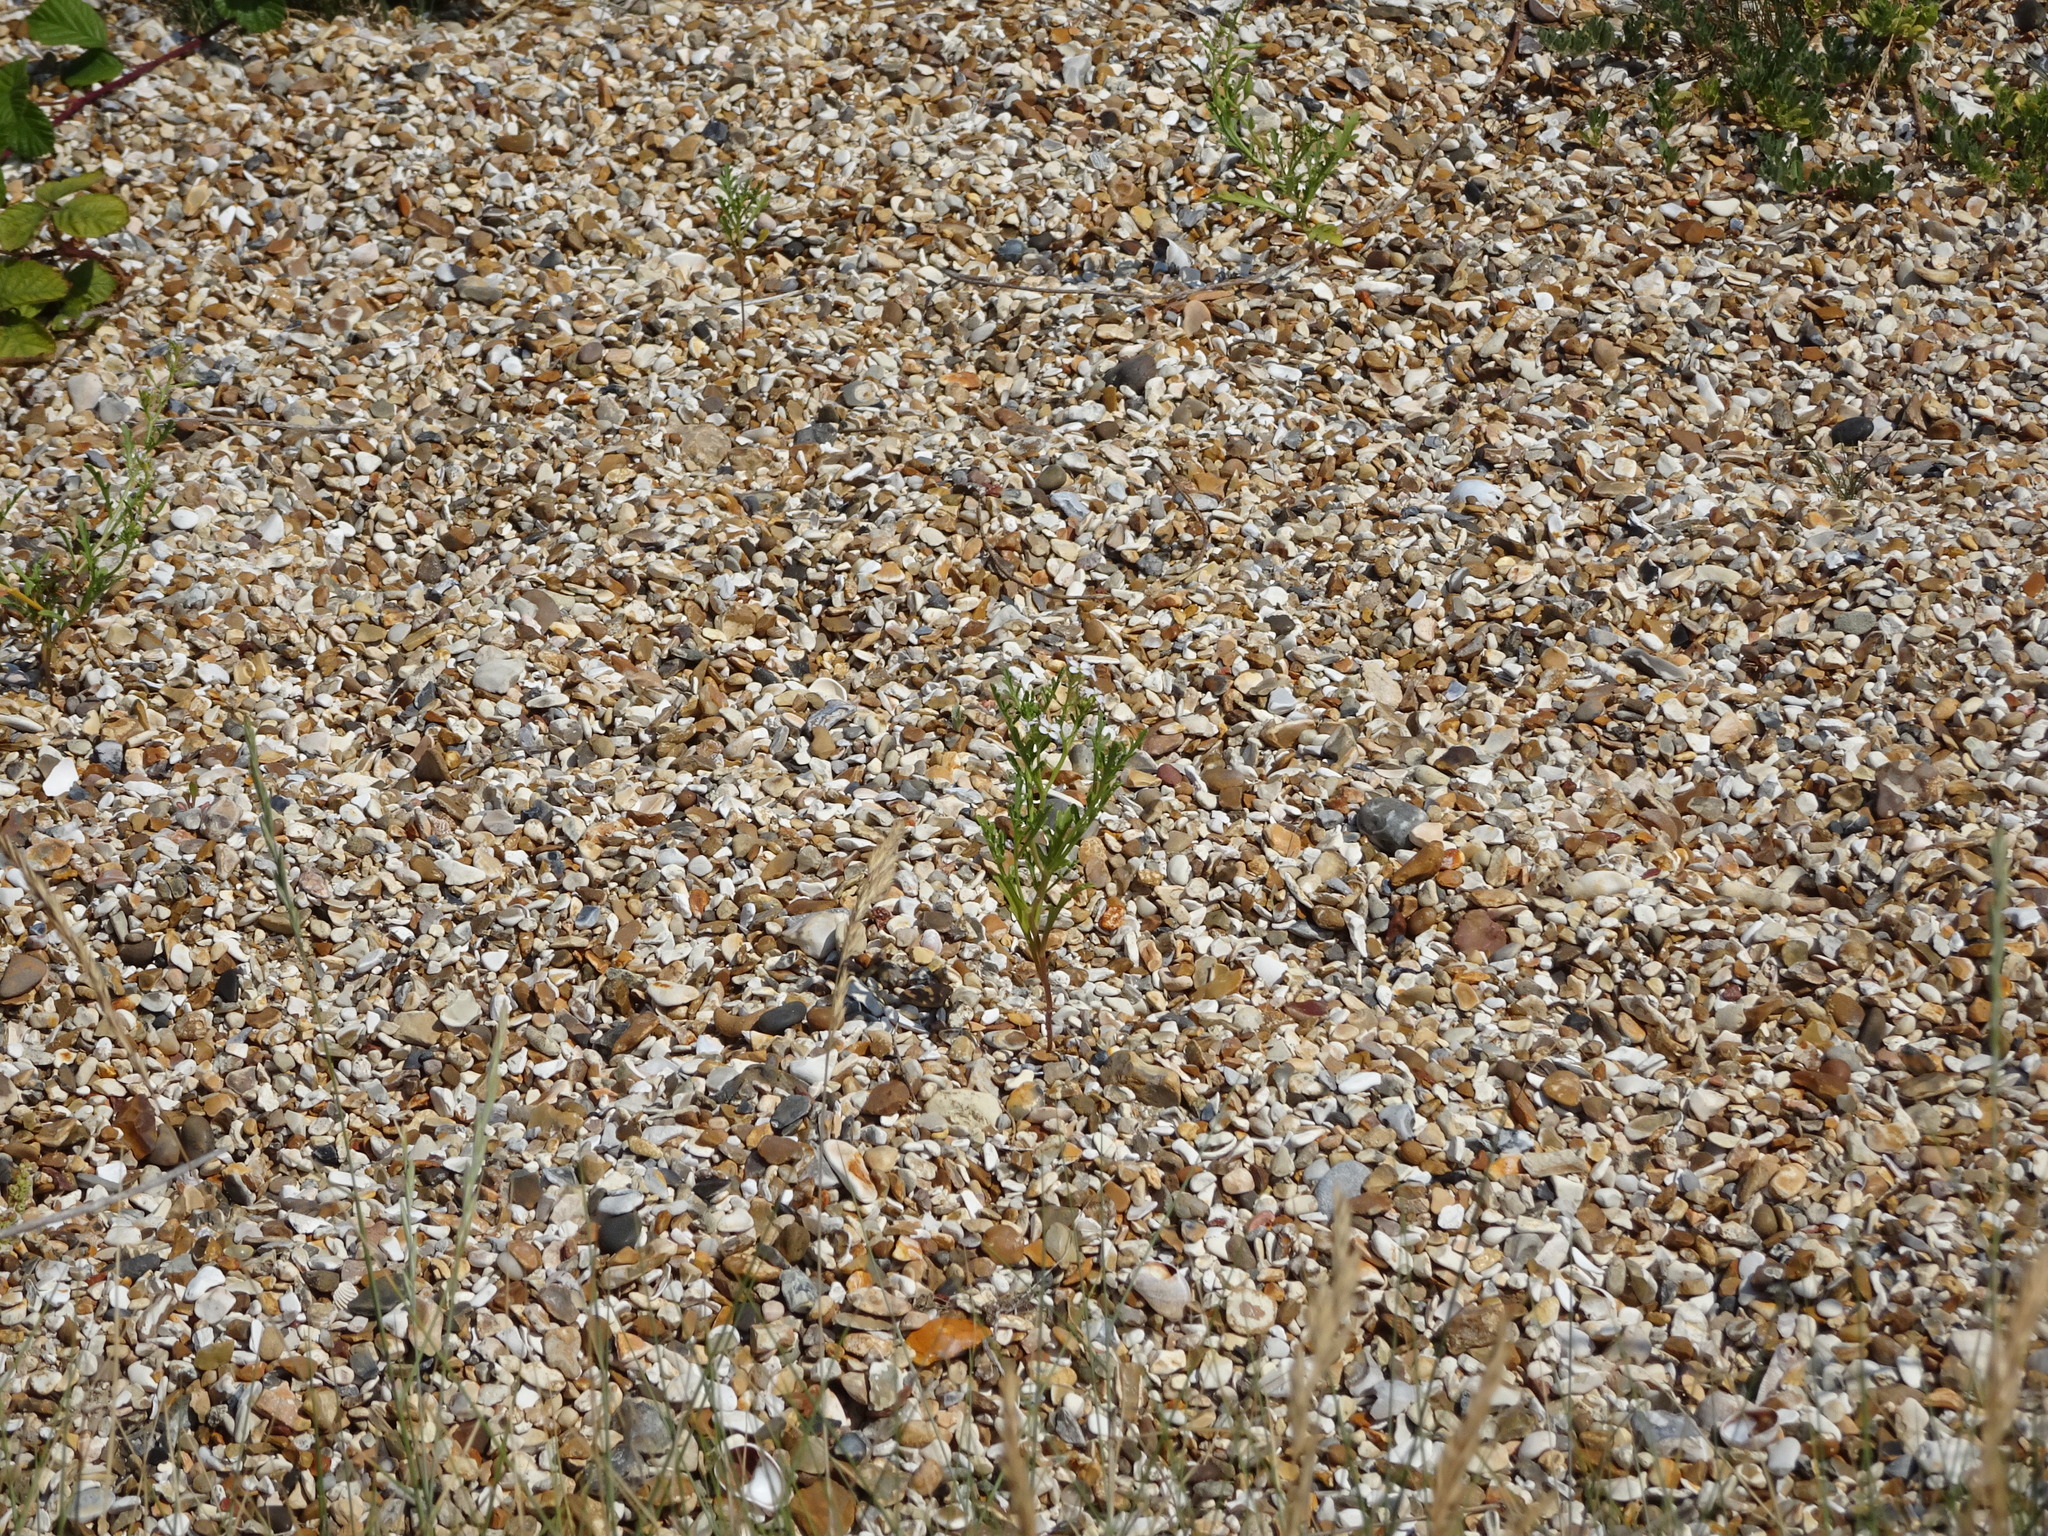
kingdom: Plantae
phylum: Tracheophyta
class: Magnoliopsida
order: Brassicales
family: Brassicaceae
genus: Cakile
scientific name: Cakile maritima
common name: Sea rocket
